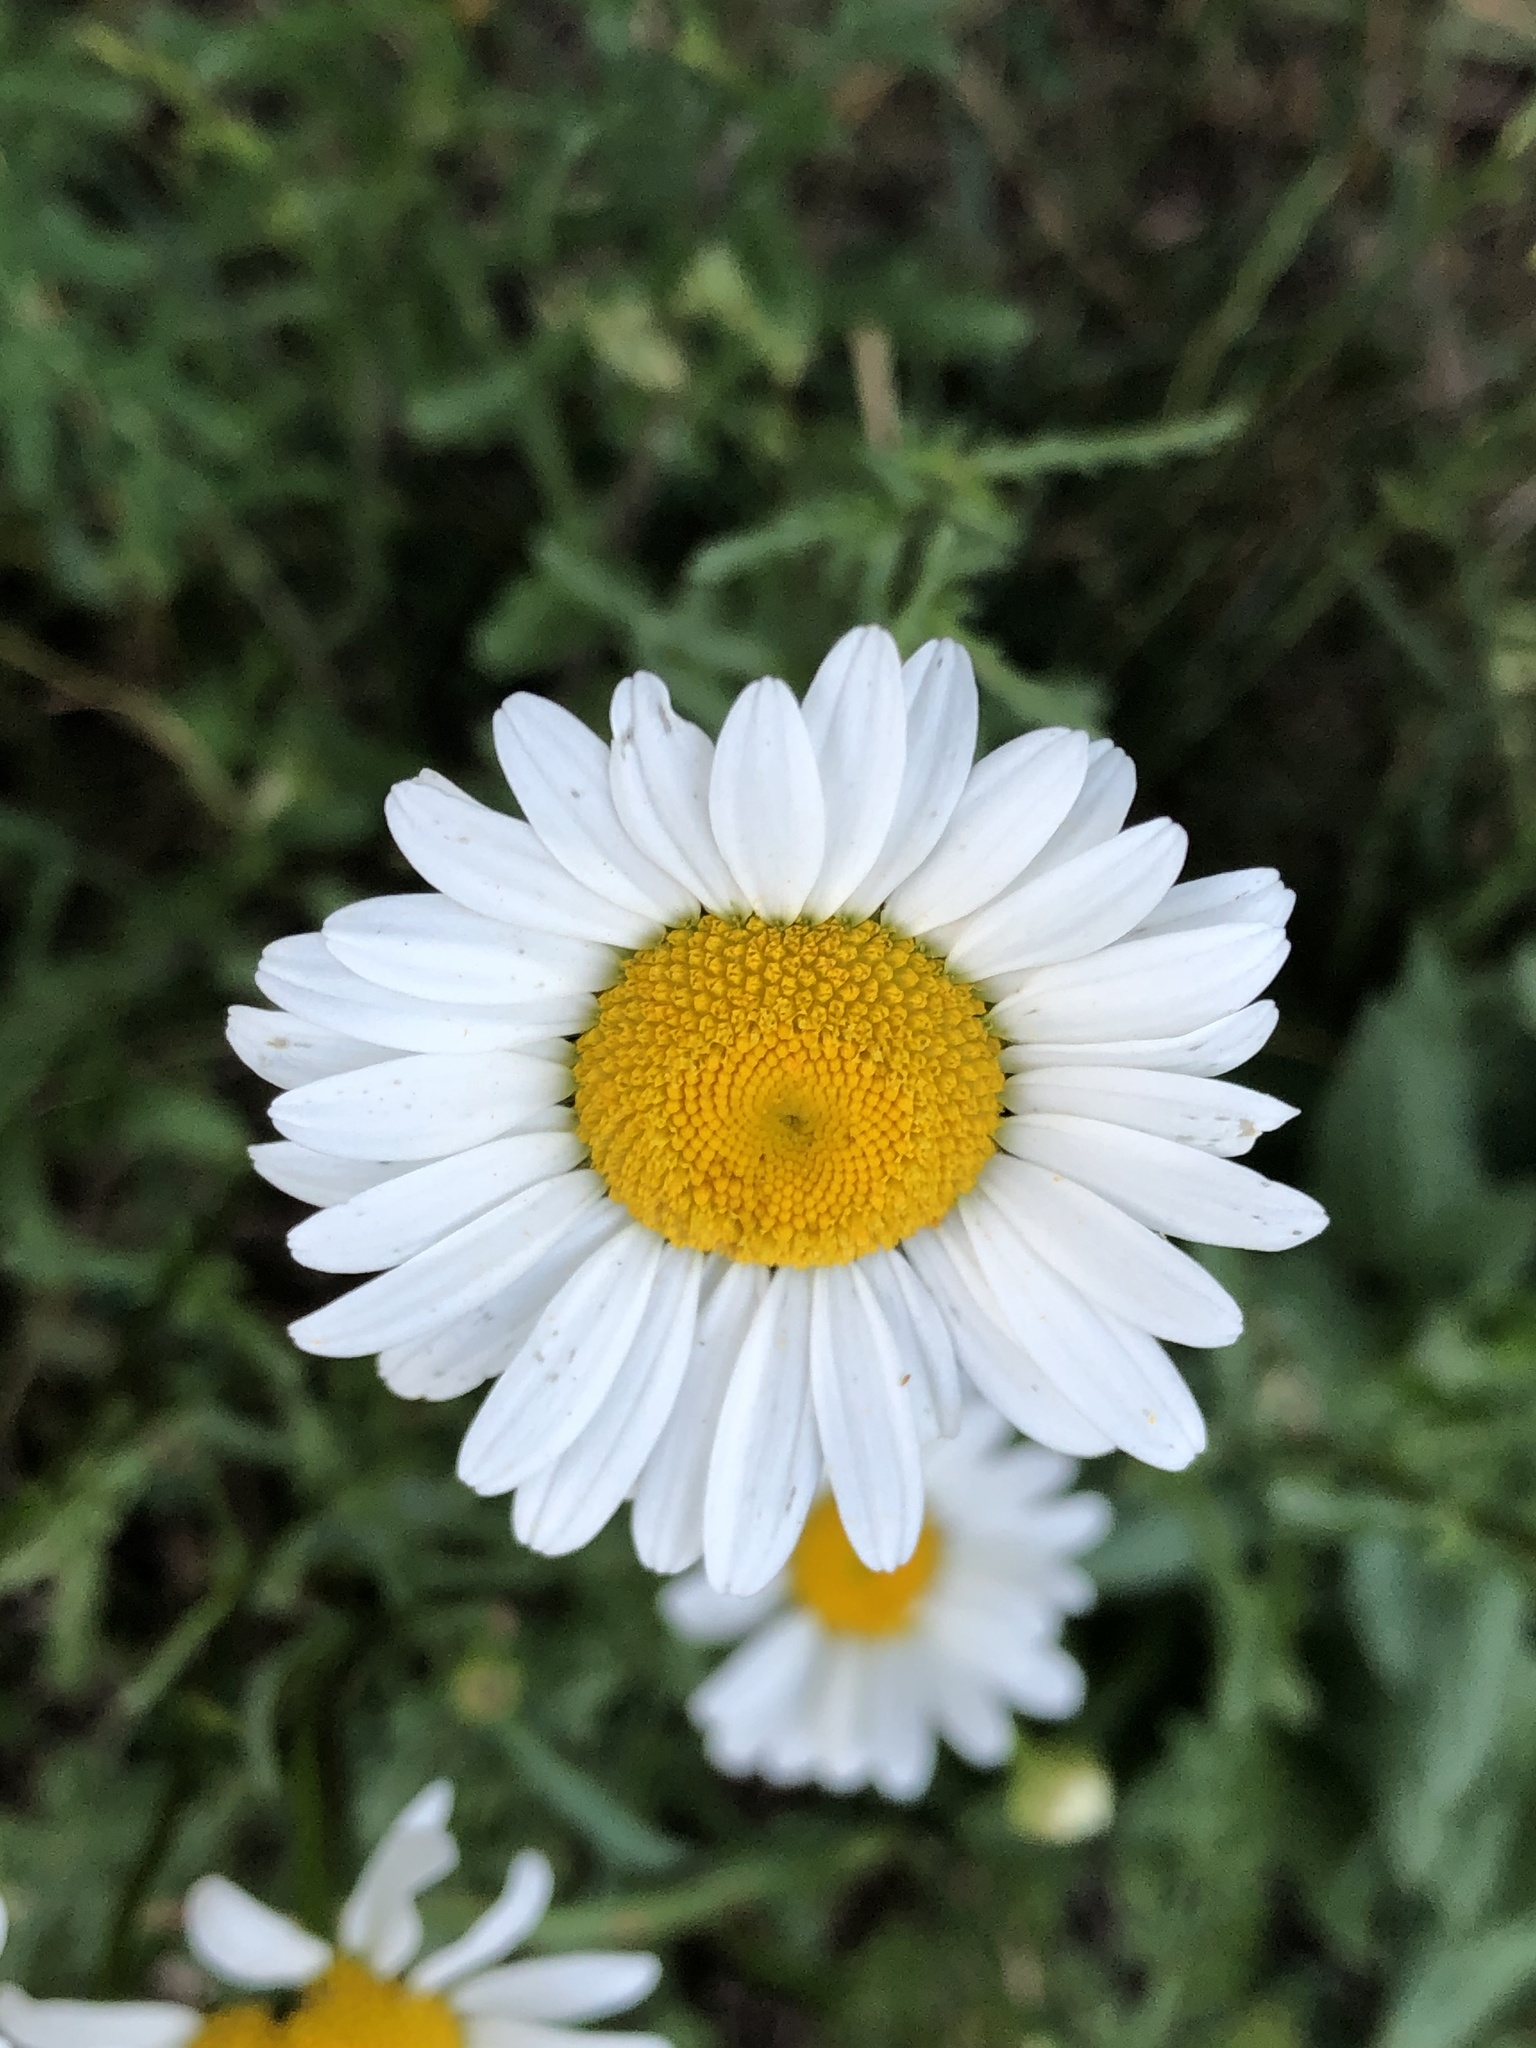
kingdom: Plantae
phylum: Tracheophyta
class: Magnoliopsida
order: Asterales
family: Asteraceae
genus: Leucanthemum
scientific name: Leucanthemum vulgare
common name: Oxeye daisy
